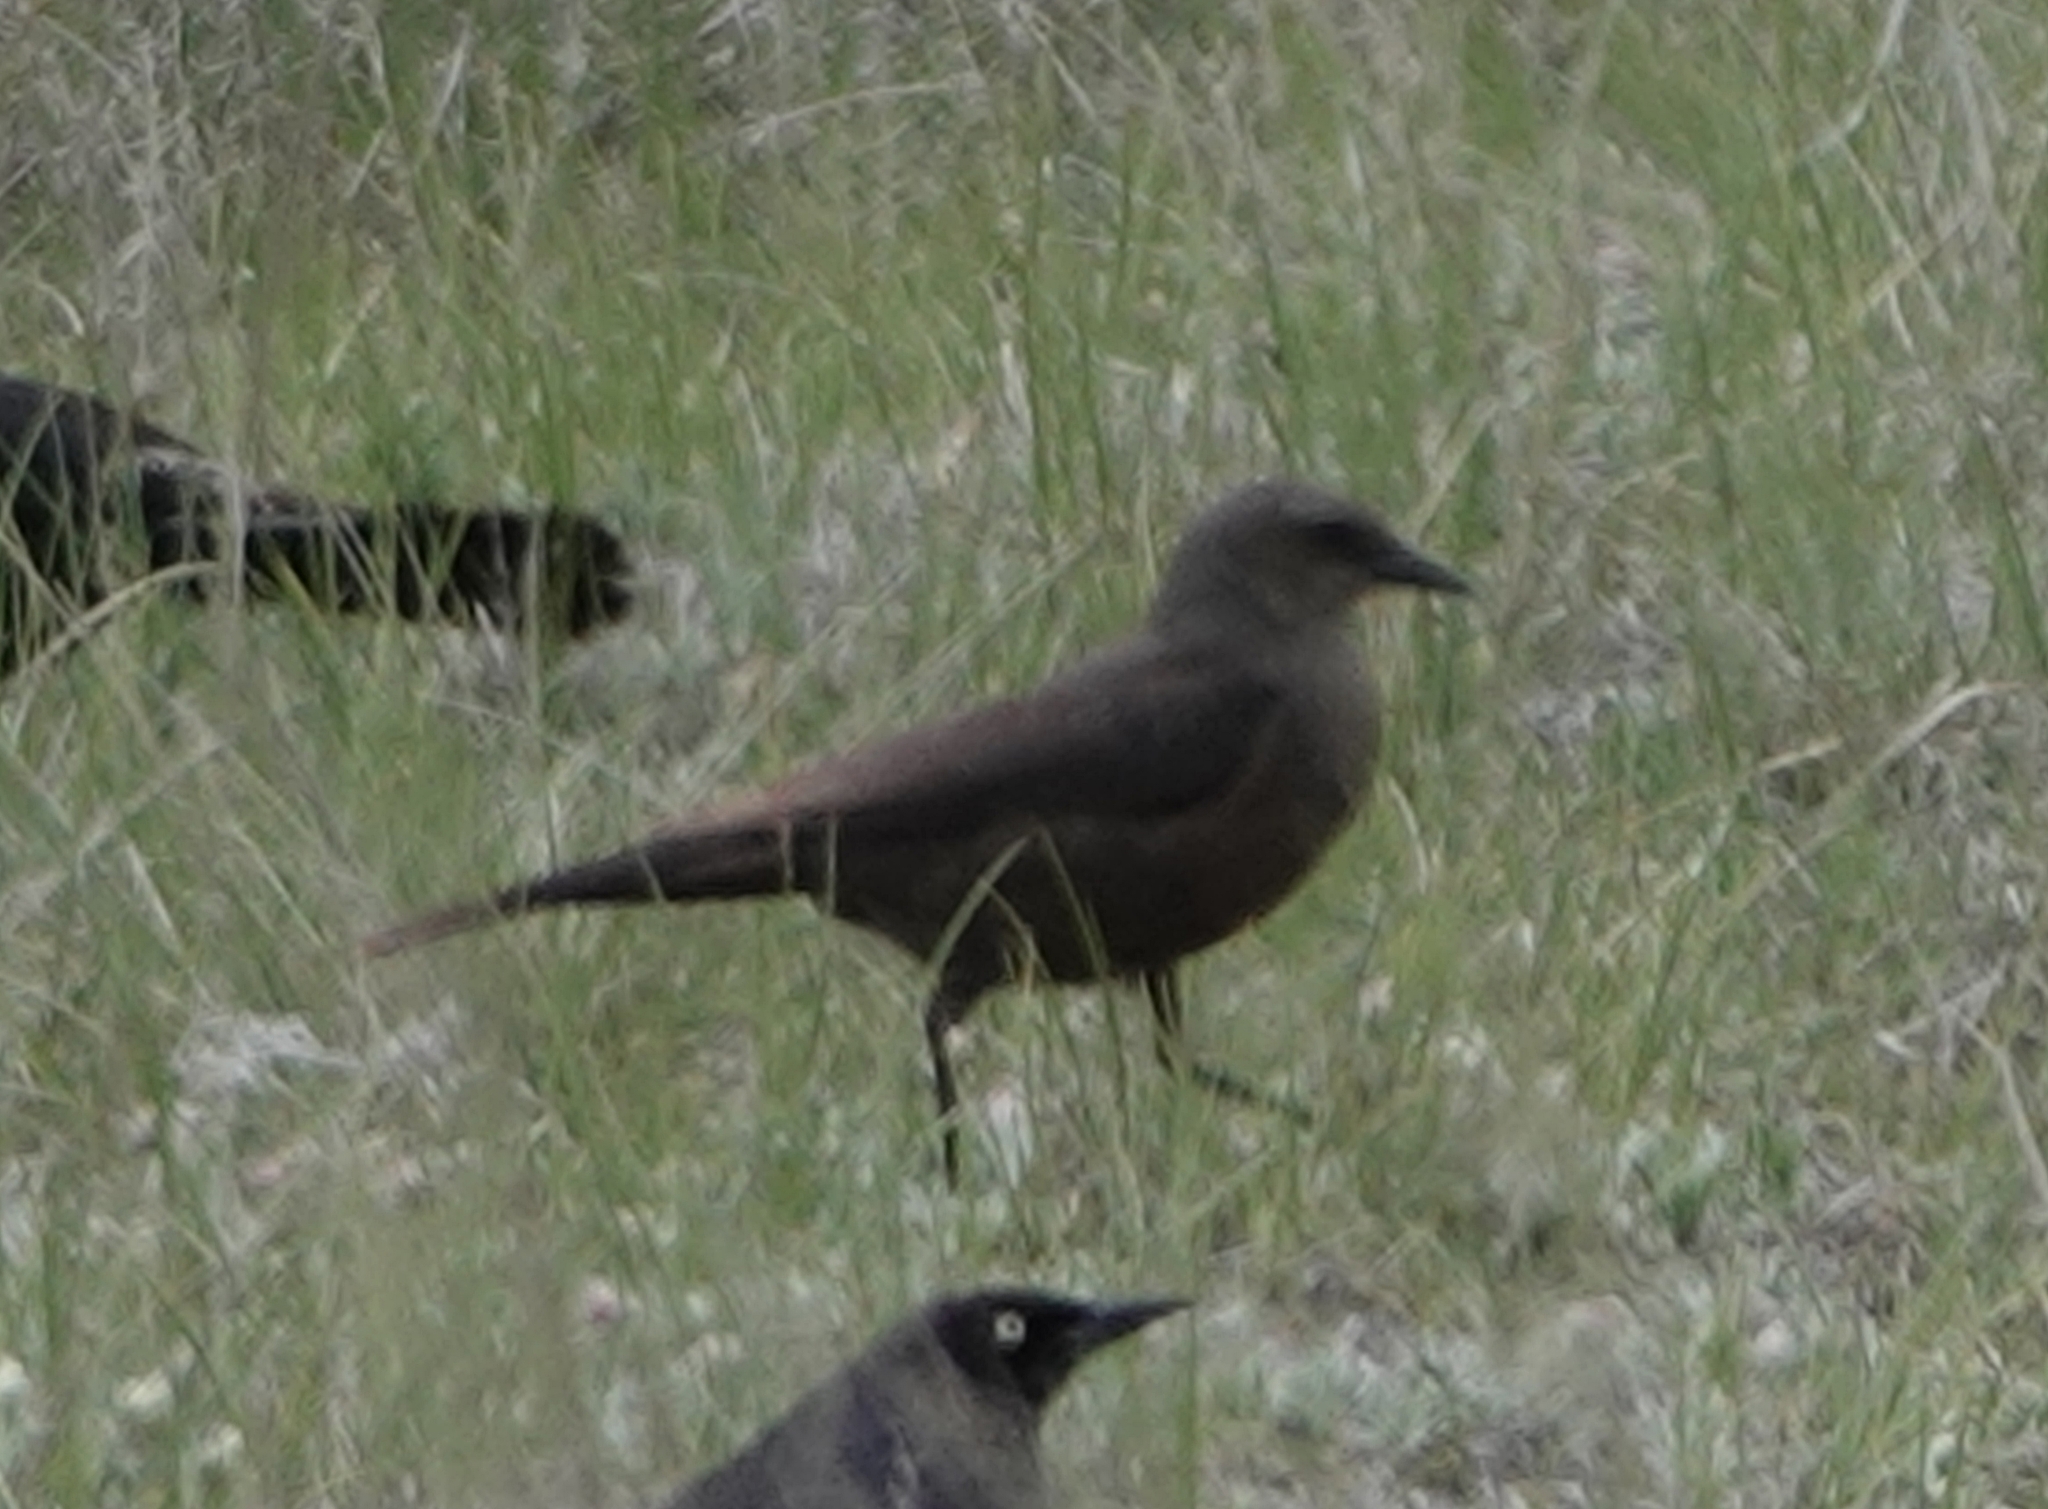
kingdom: Animalia
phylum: Chordata
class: Aves
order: Passeriformes
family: Icteridae
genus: Euphagus
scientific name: Euphagus cyanocephalus
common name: Brewer's blackbird
